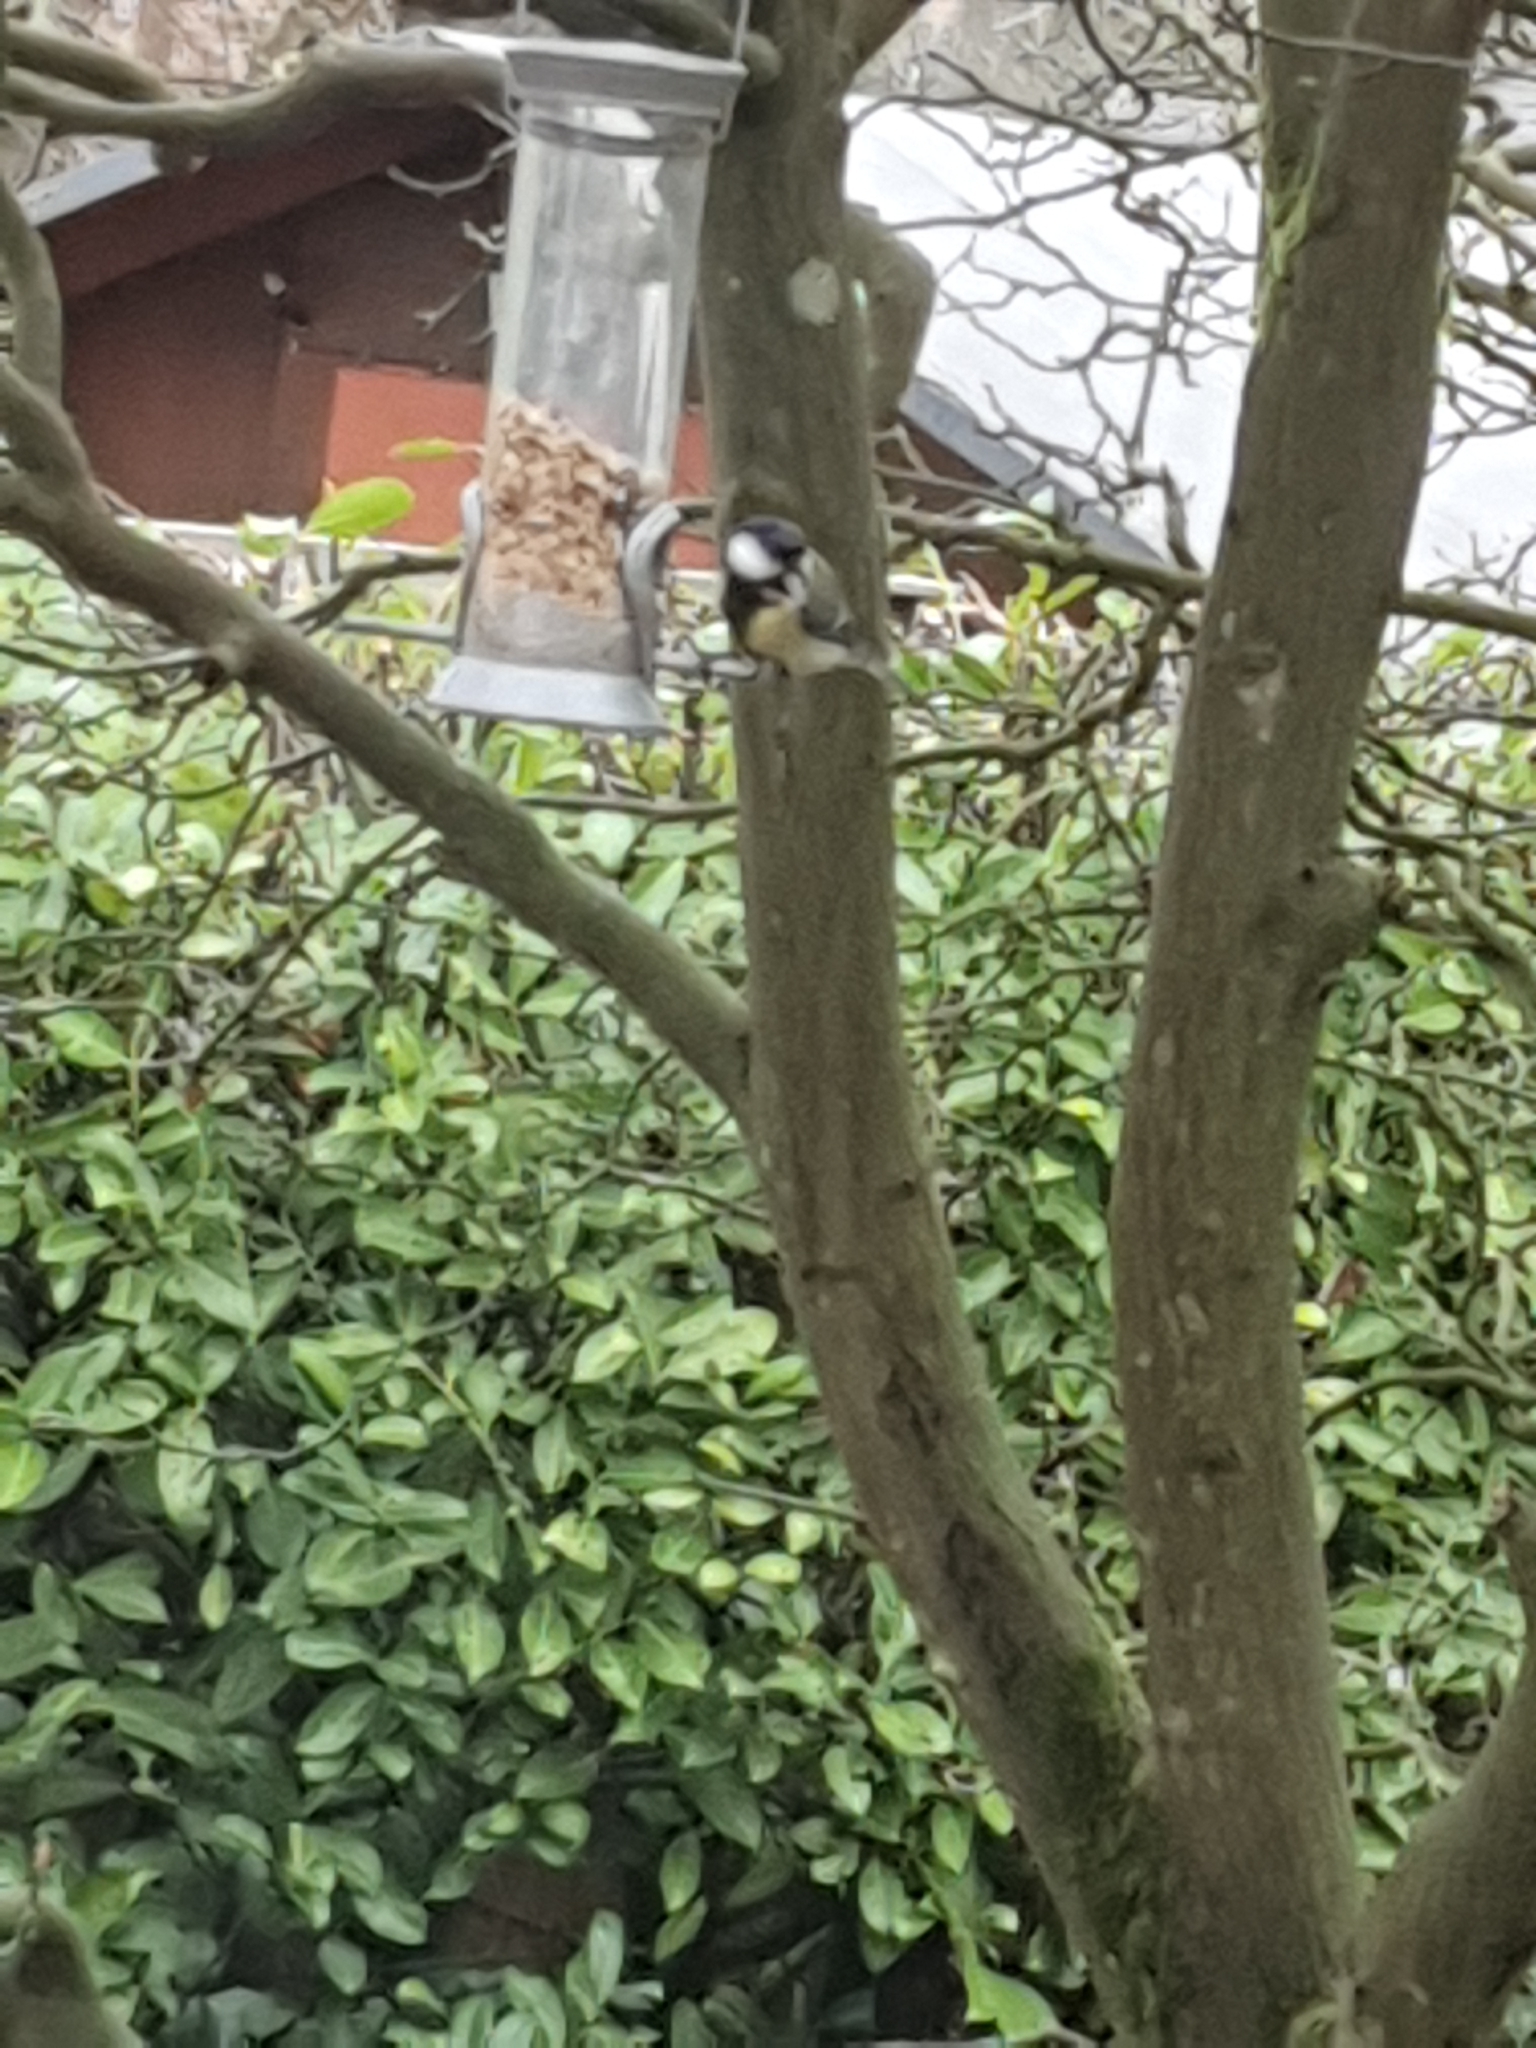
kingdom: Animalia
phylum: Chordata
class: Aves
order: Passeriformes
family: Paridae
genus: Parus
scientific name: Parus major
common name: Great tit
